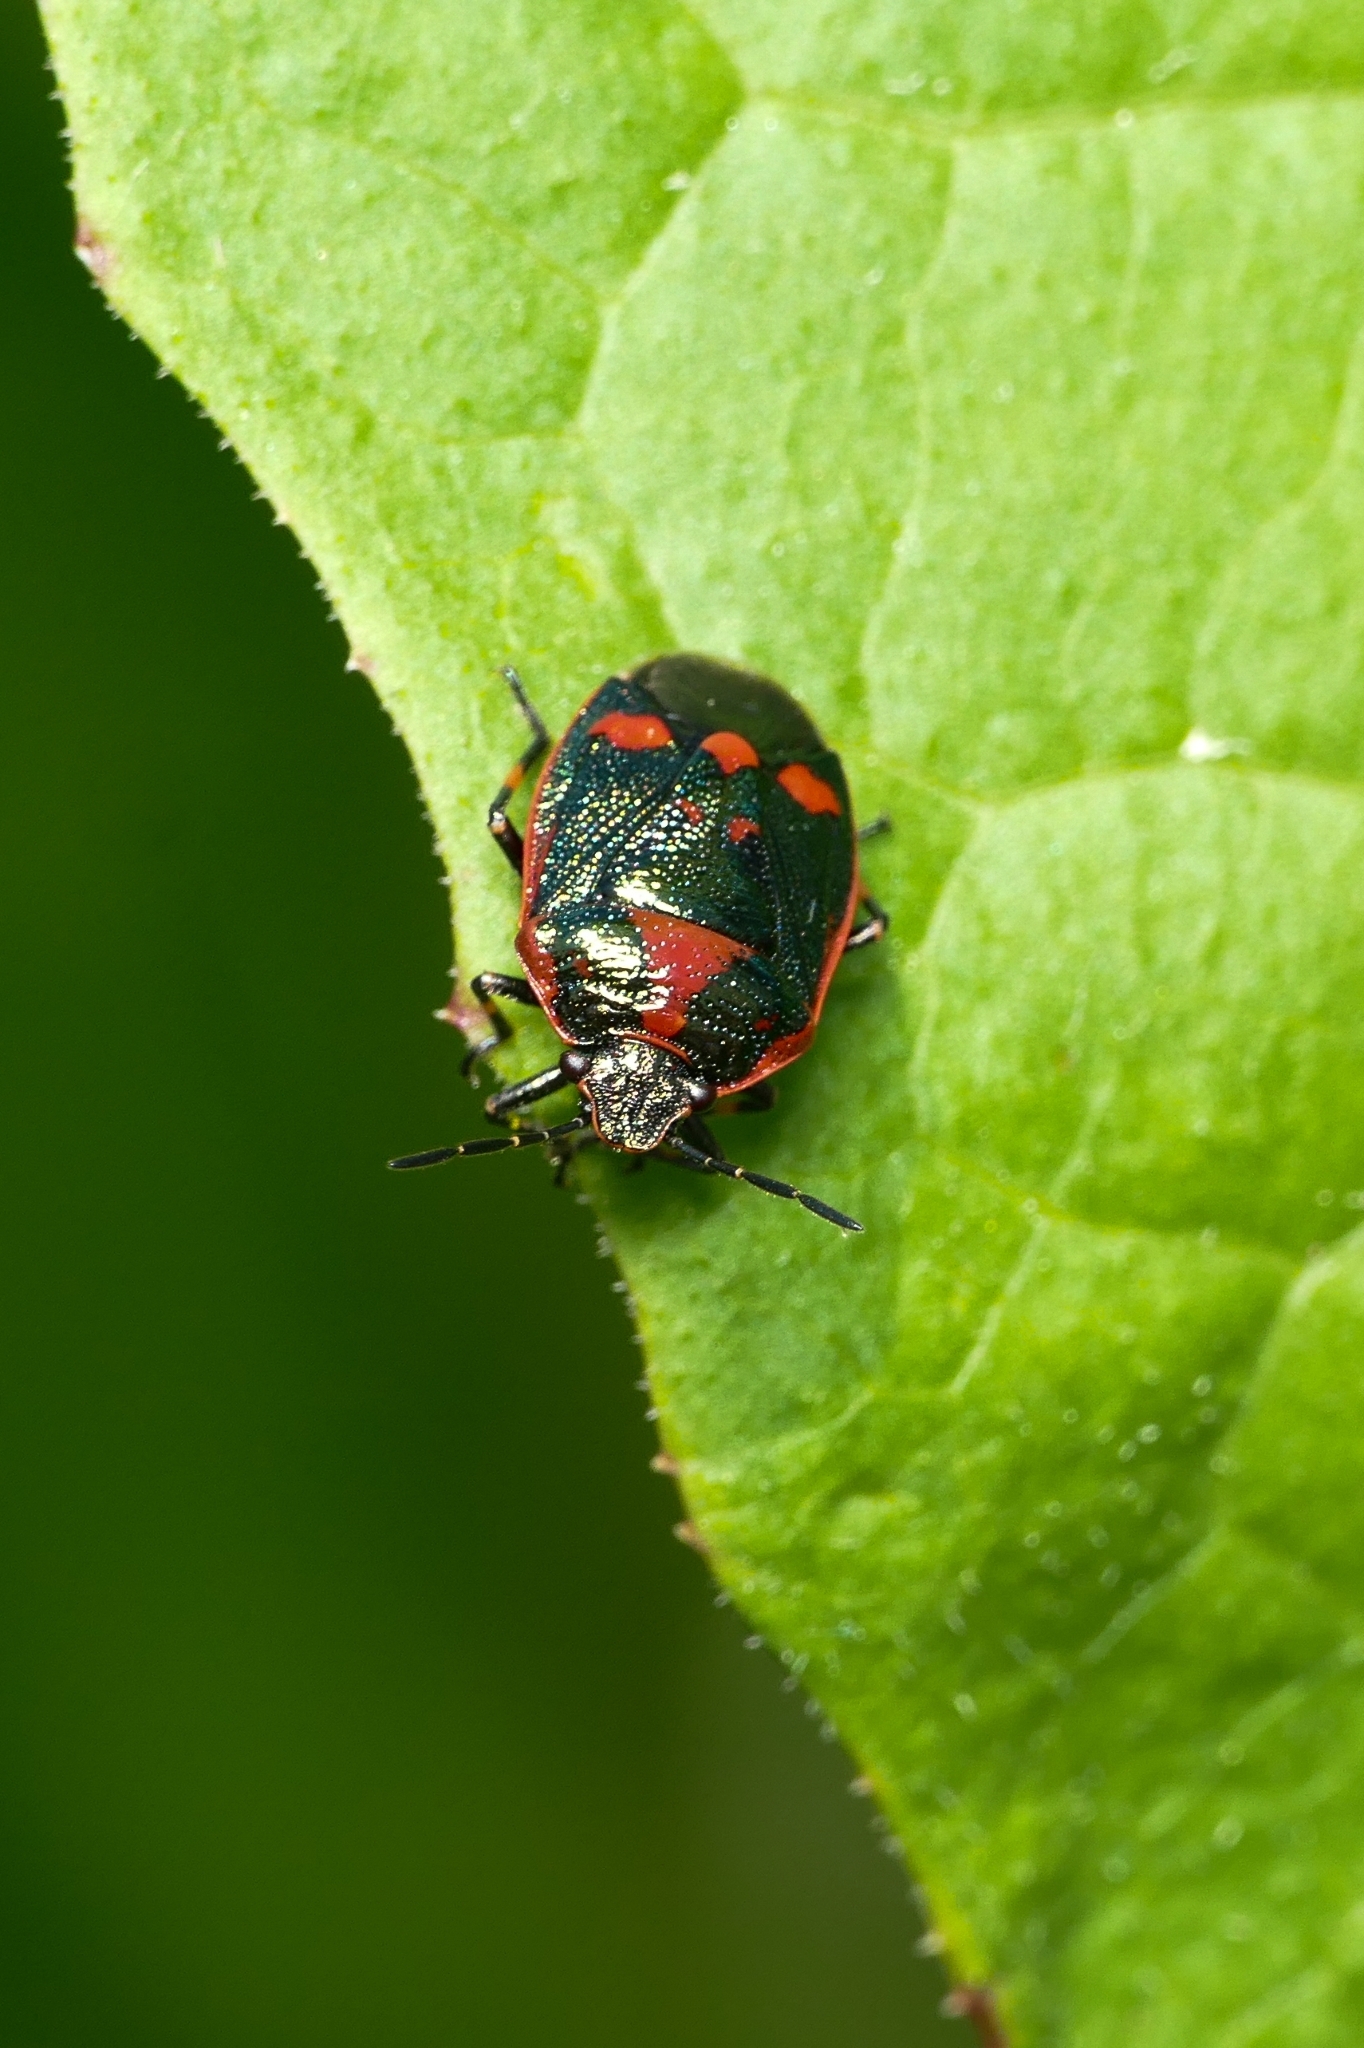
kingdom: Animalia
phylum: Arthropoda
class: Insecta
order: Hemiptera
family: Pentatomidae
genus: Eurydema
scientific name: Eurydema oleracea
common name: Cabbage bug
